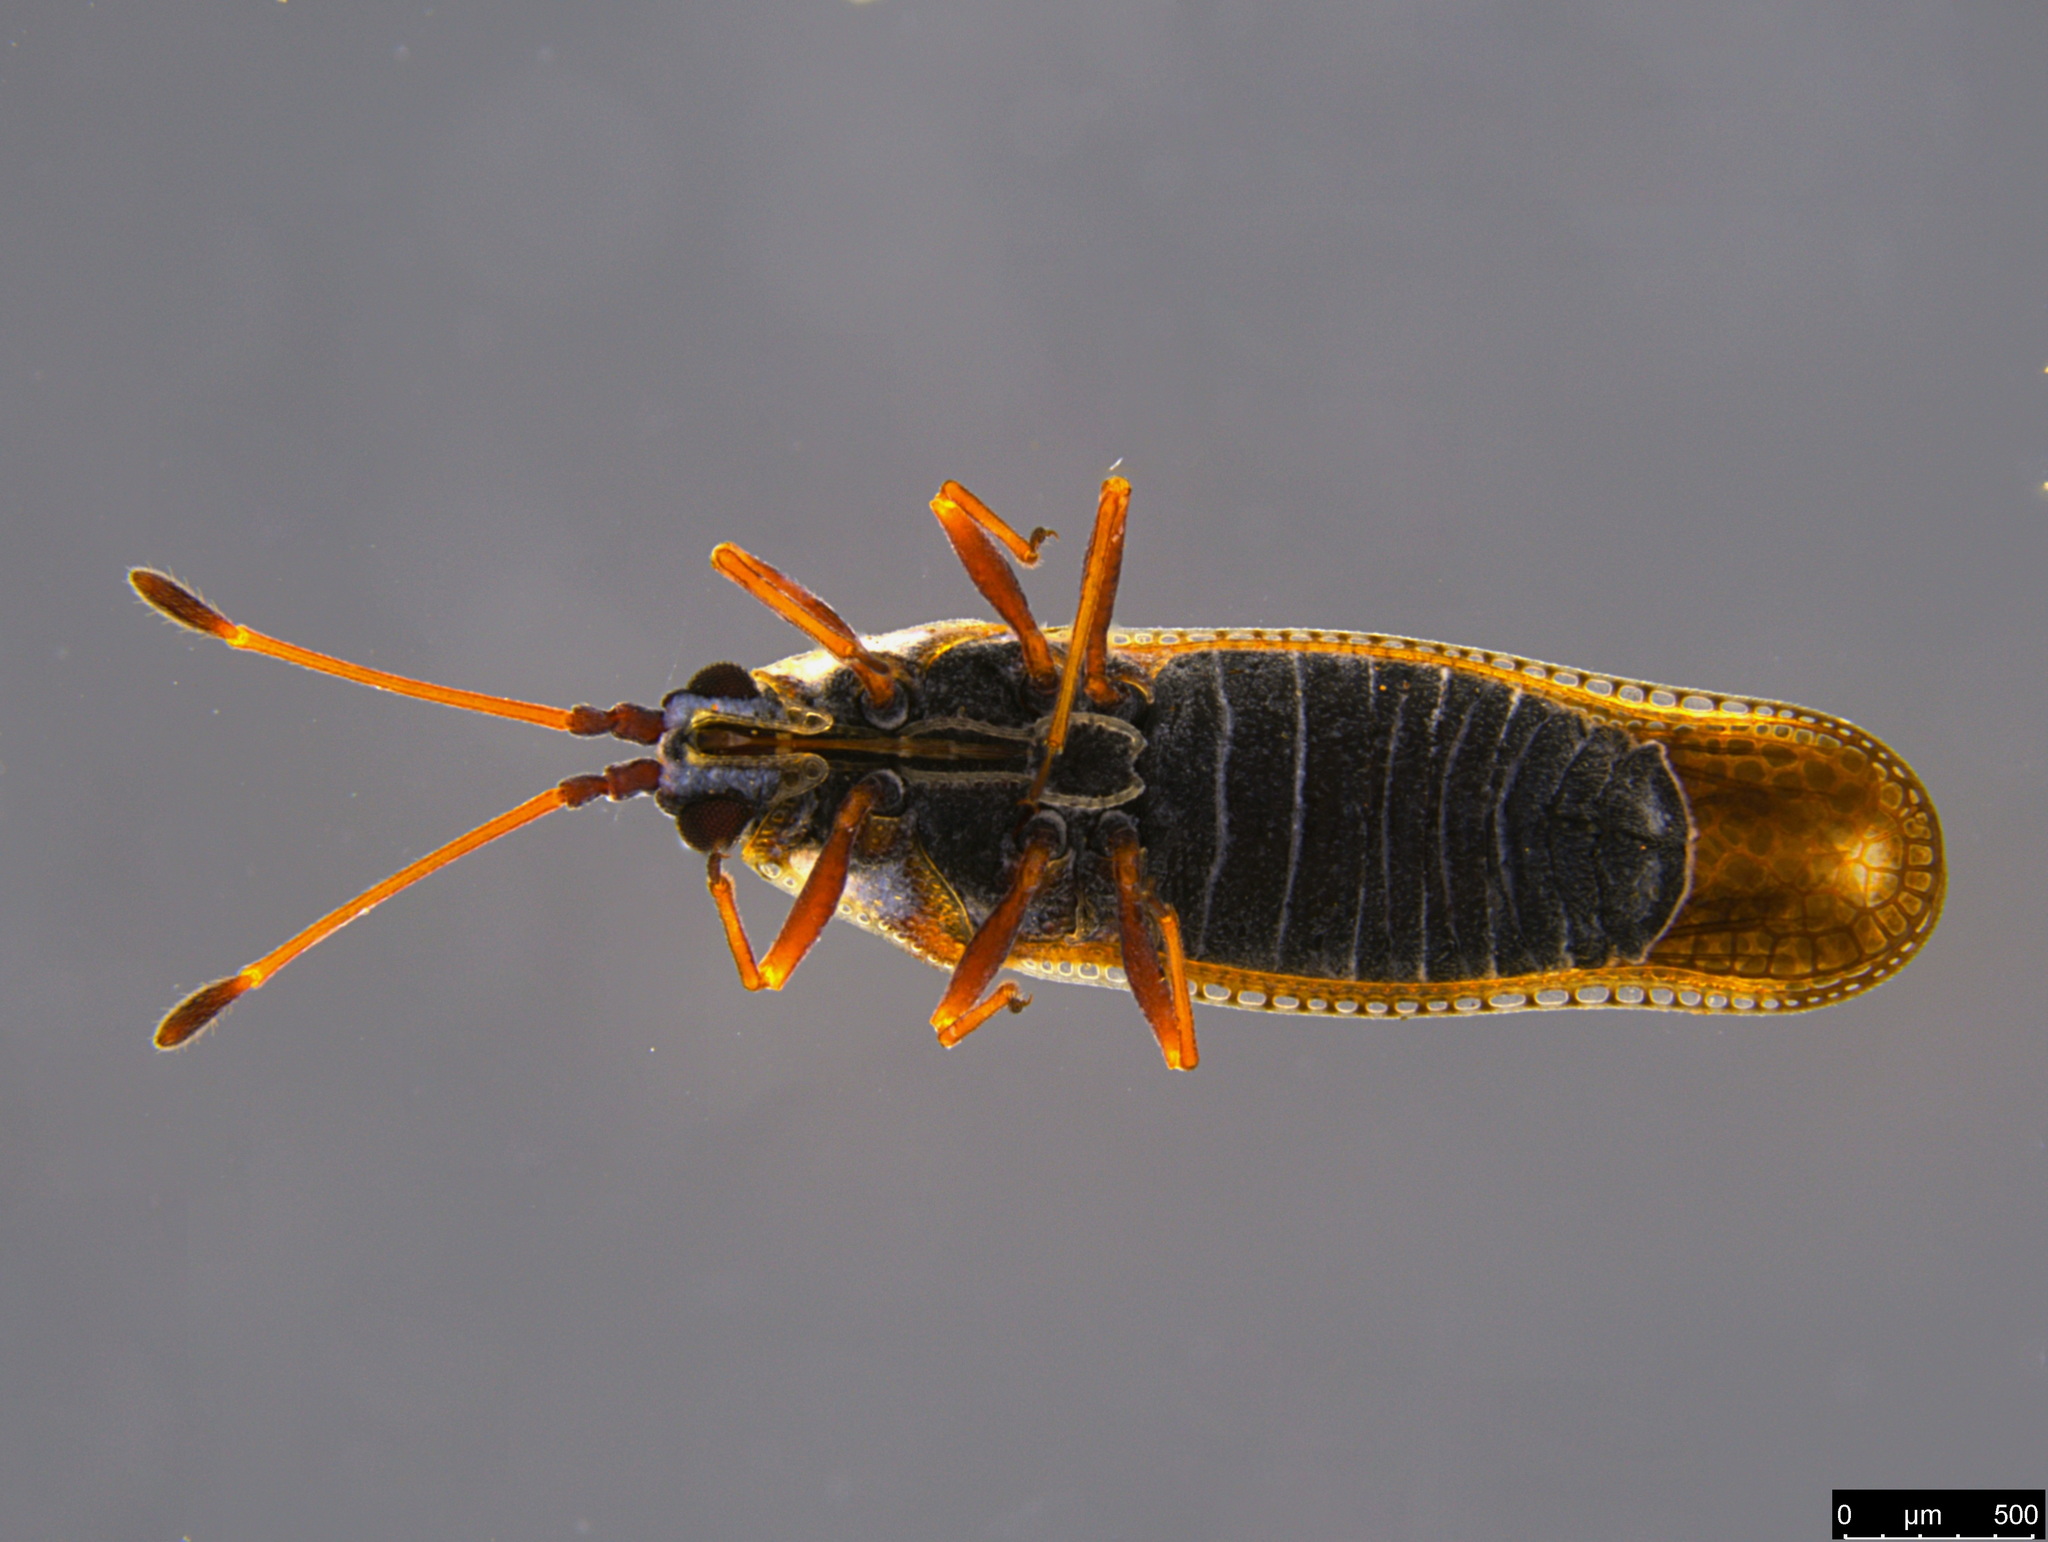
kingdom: Animalia
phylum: Arthropoda
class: Insecta
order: Hemiptera
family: Tingidae
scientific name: Tingidae
